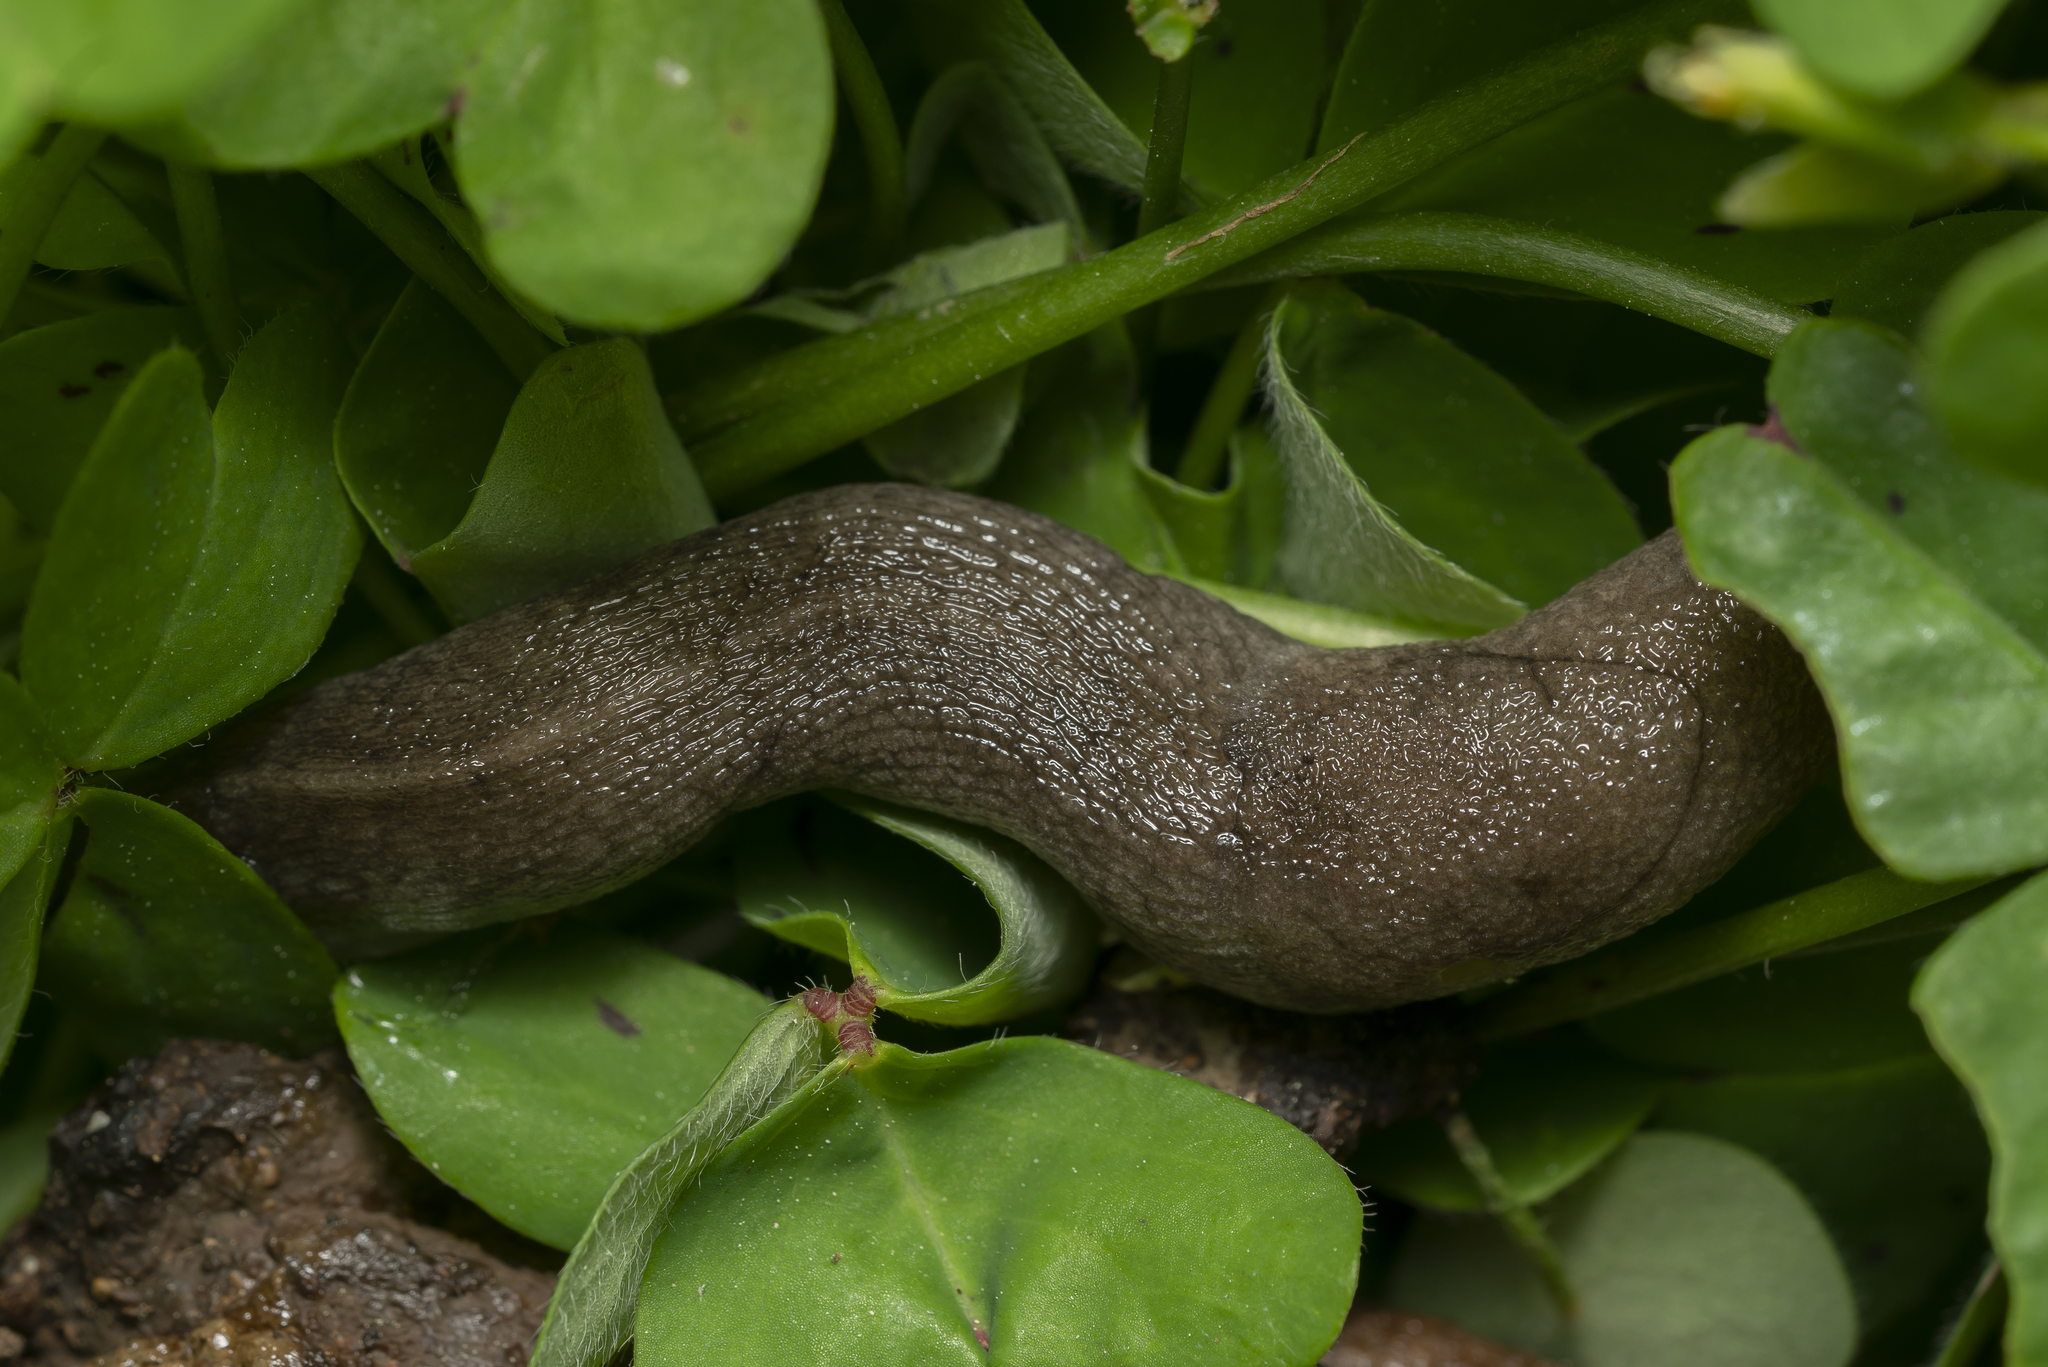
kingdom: Animalia
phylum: Mollusca
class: Gastropoda
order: Stylommatophora
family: Milacidae
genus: Tandonia
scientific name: Tandonia pageti
